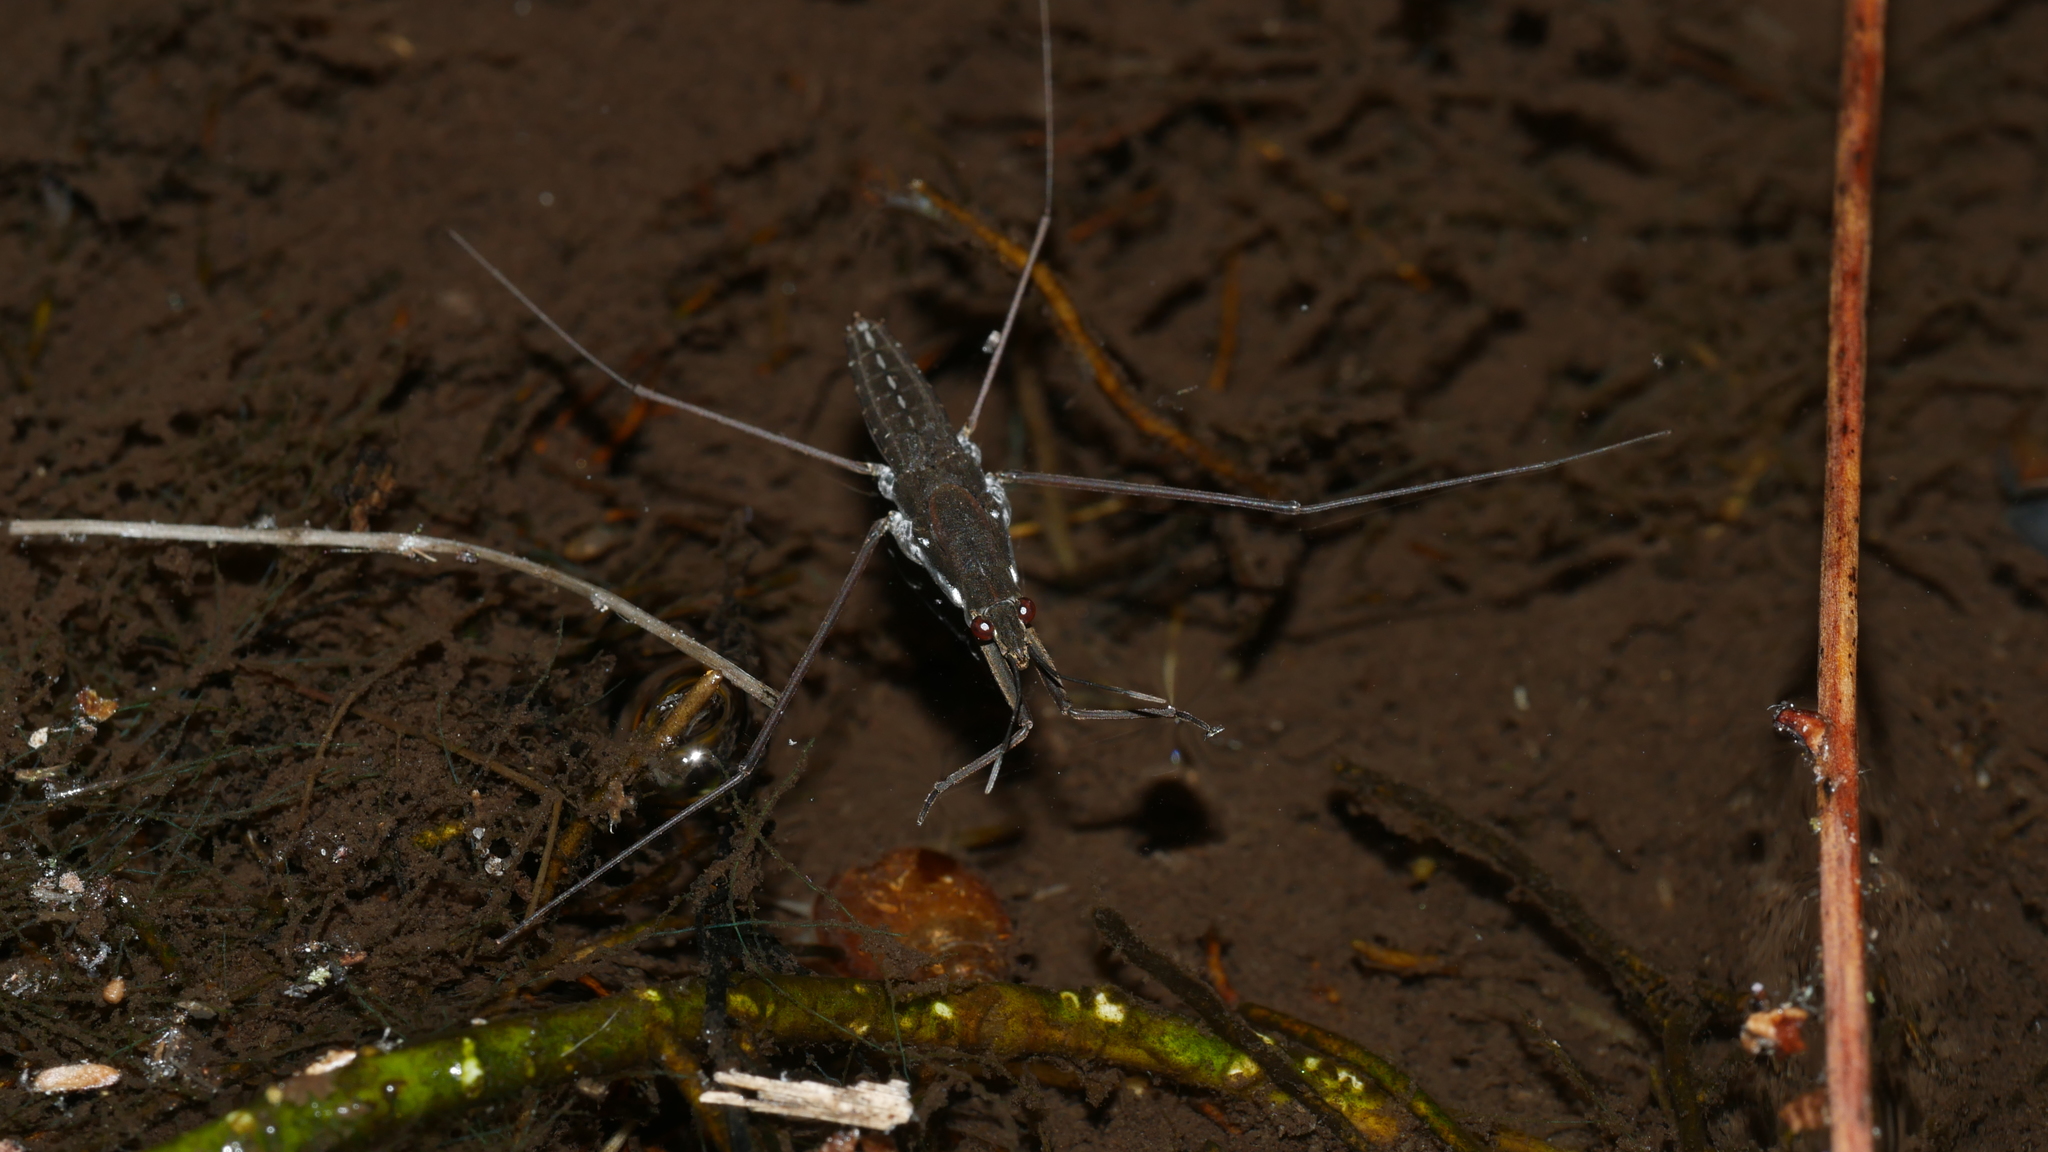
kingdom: Animalia
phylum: Arthropoda
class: Insecta
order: Hemiptera
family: Gerridae
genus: Aquarius
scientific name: Aquarius
